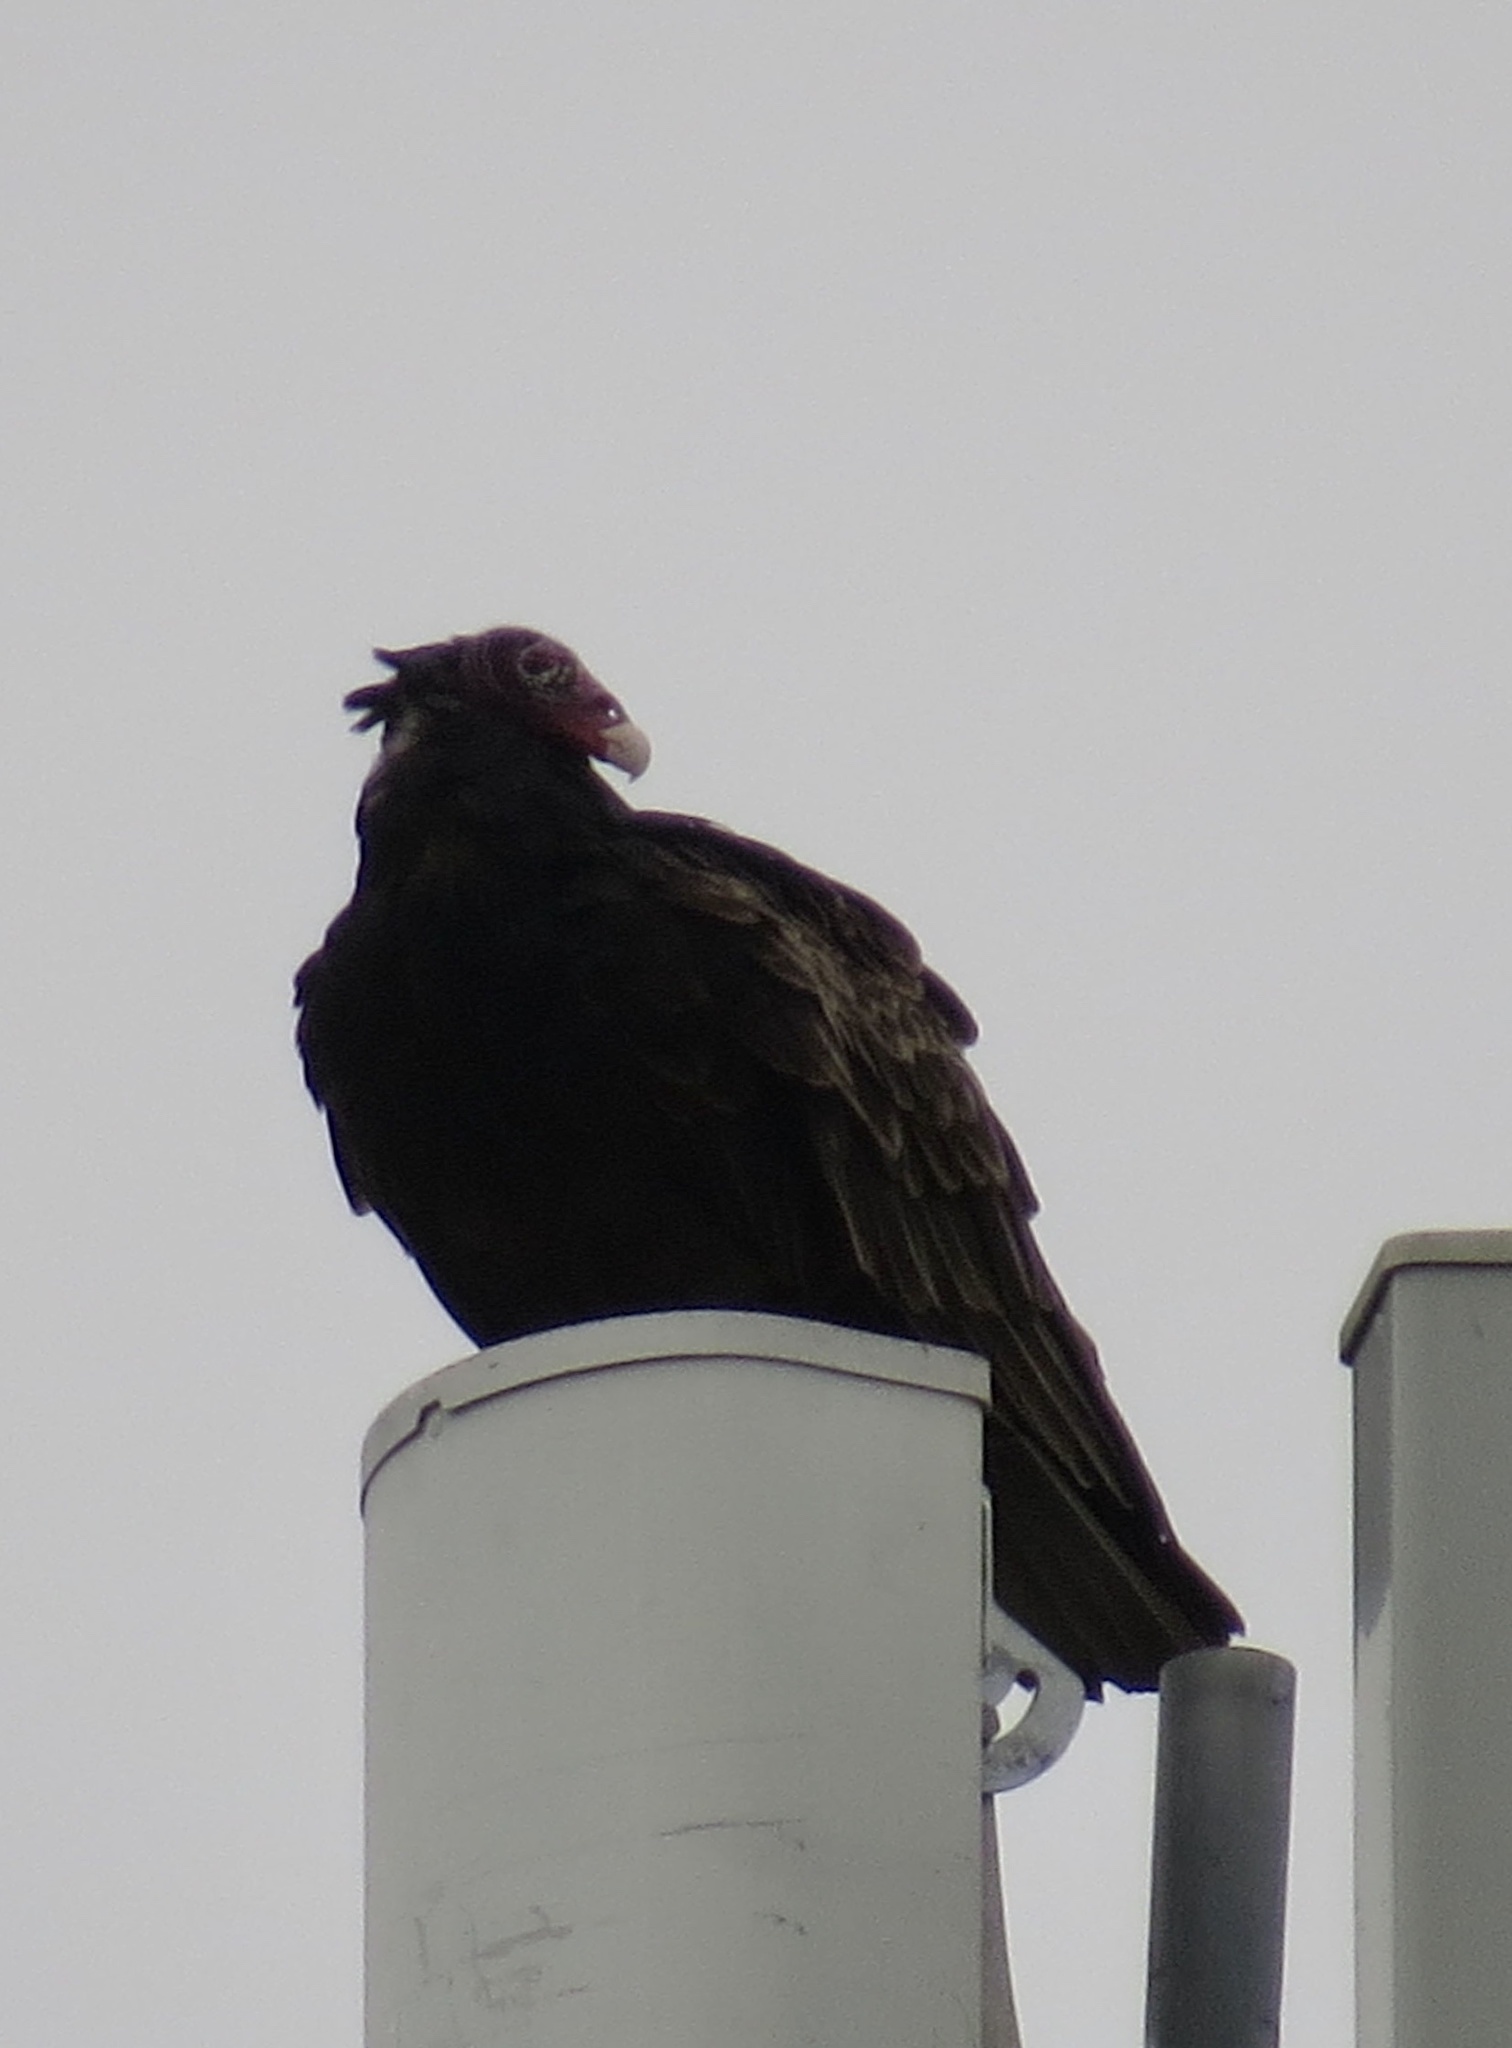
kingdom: Animalia
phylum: Chordata
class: Aves
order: Accipitriformes
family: Cathartidae
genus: Cathartes
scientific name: Cathartes aura
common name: Turkey vulture
